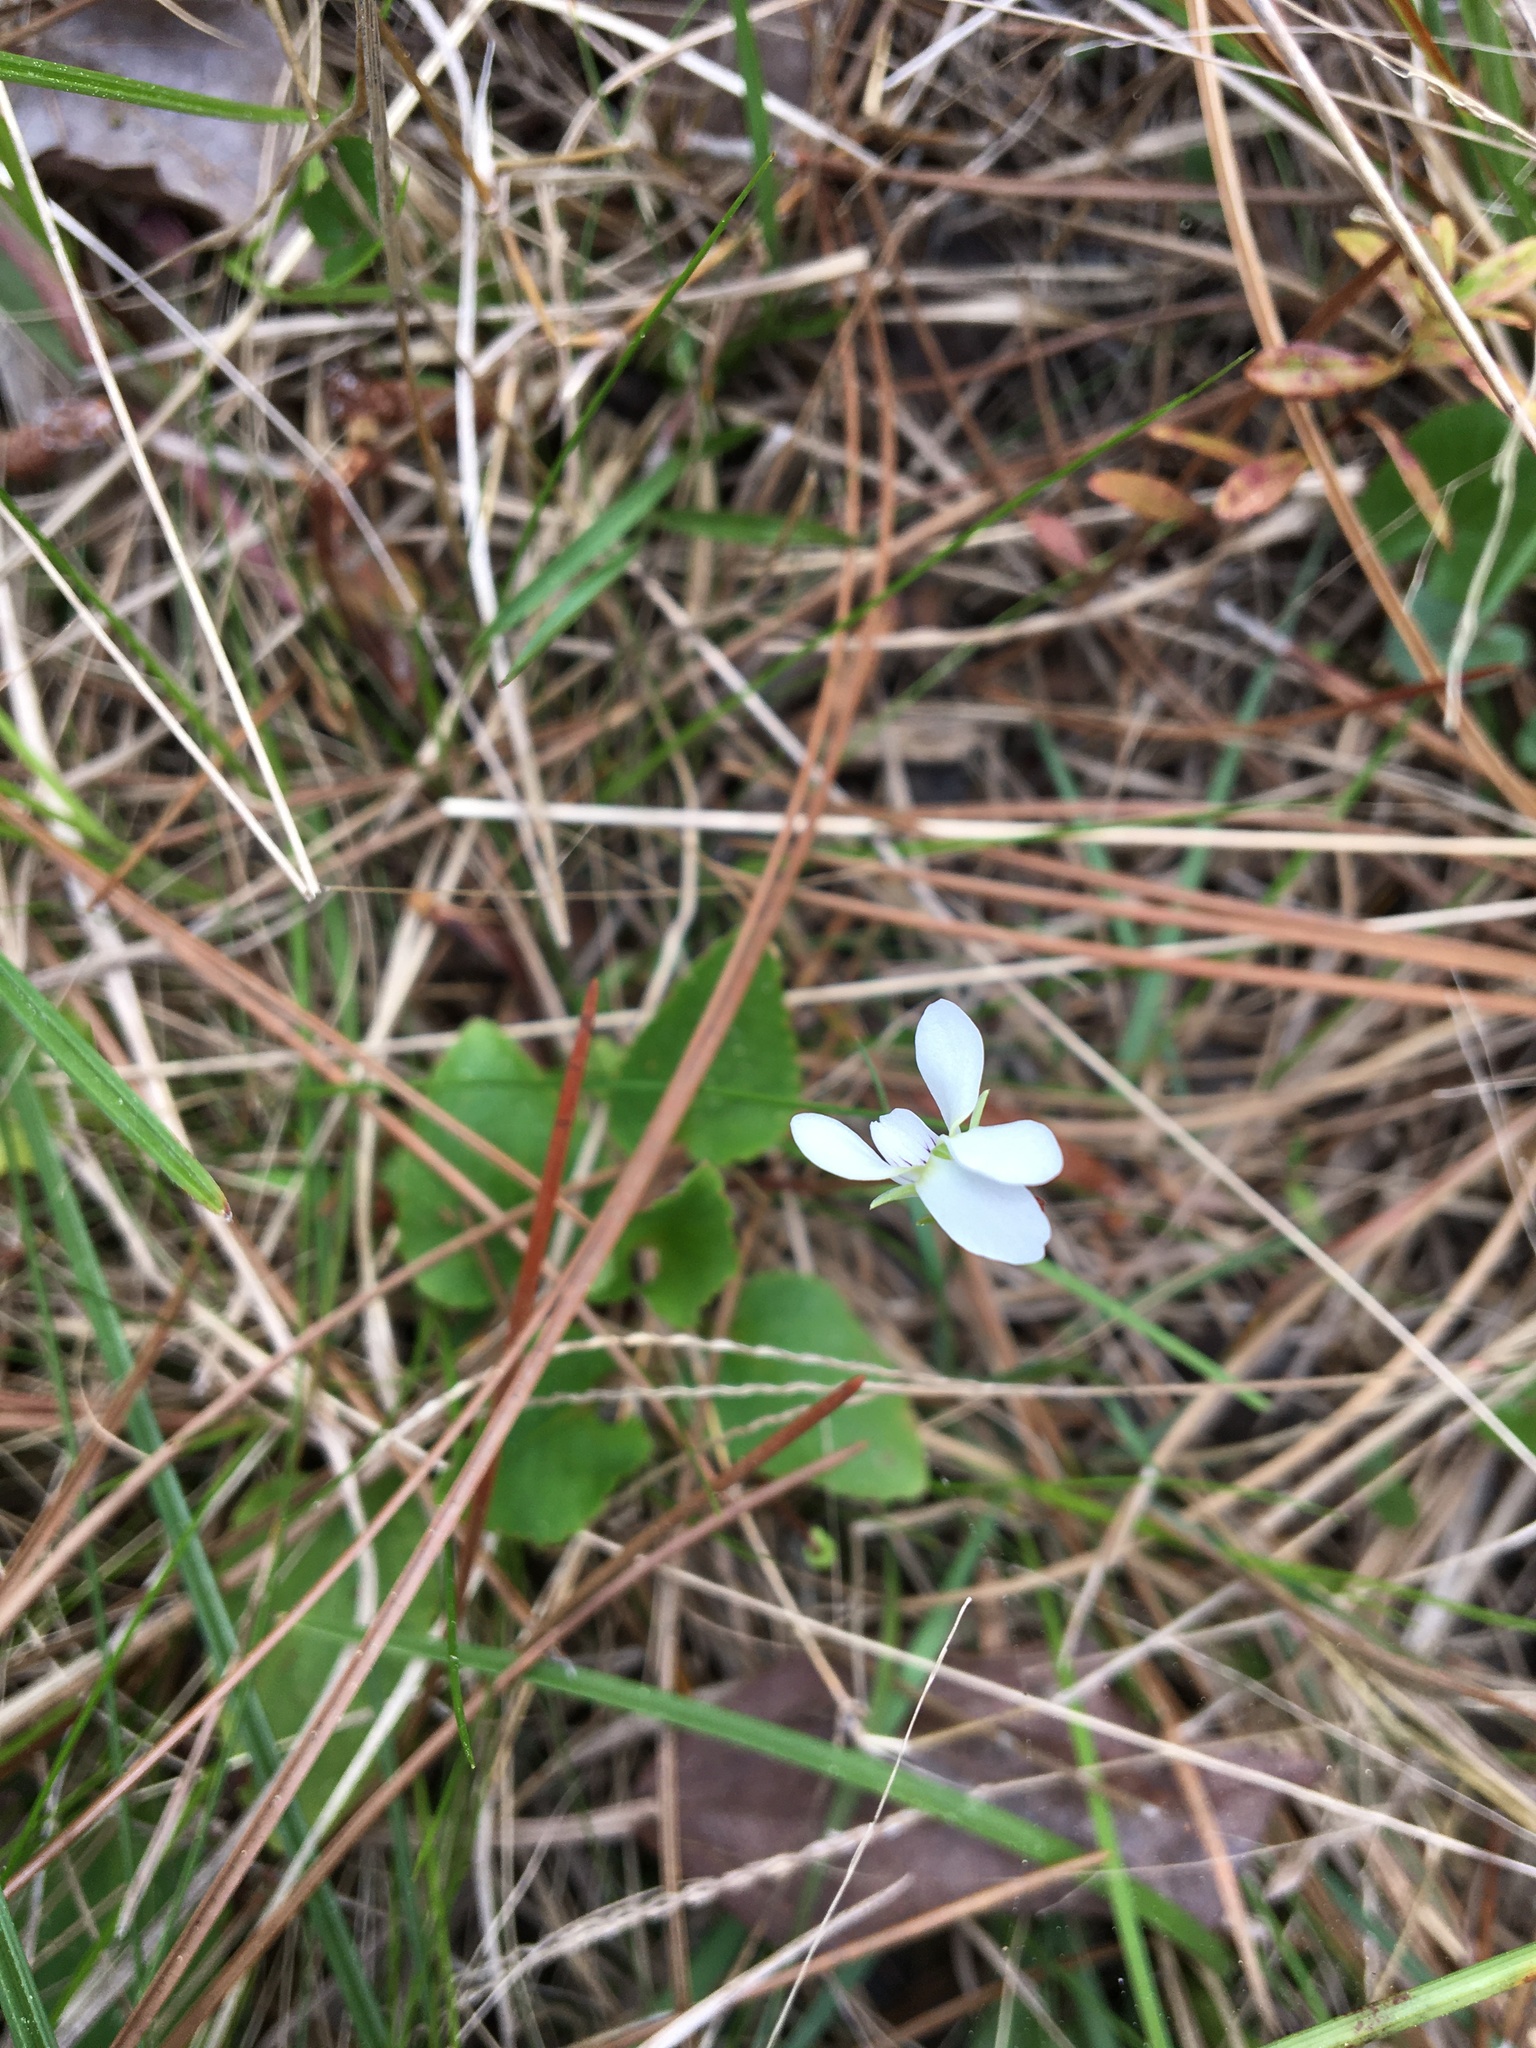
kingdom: Plantae
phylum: Tracheophyta
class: Magnoliopsida
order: Malpighiales
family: Violaceae
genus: Viola
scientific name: Viola primulifolia
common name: Primrose-leaf violet
